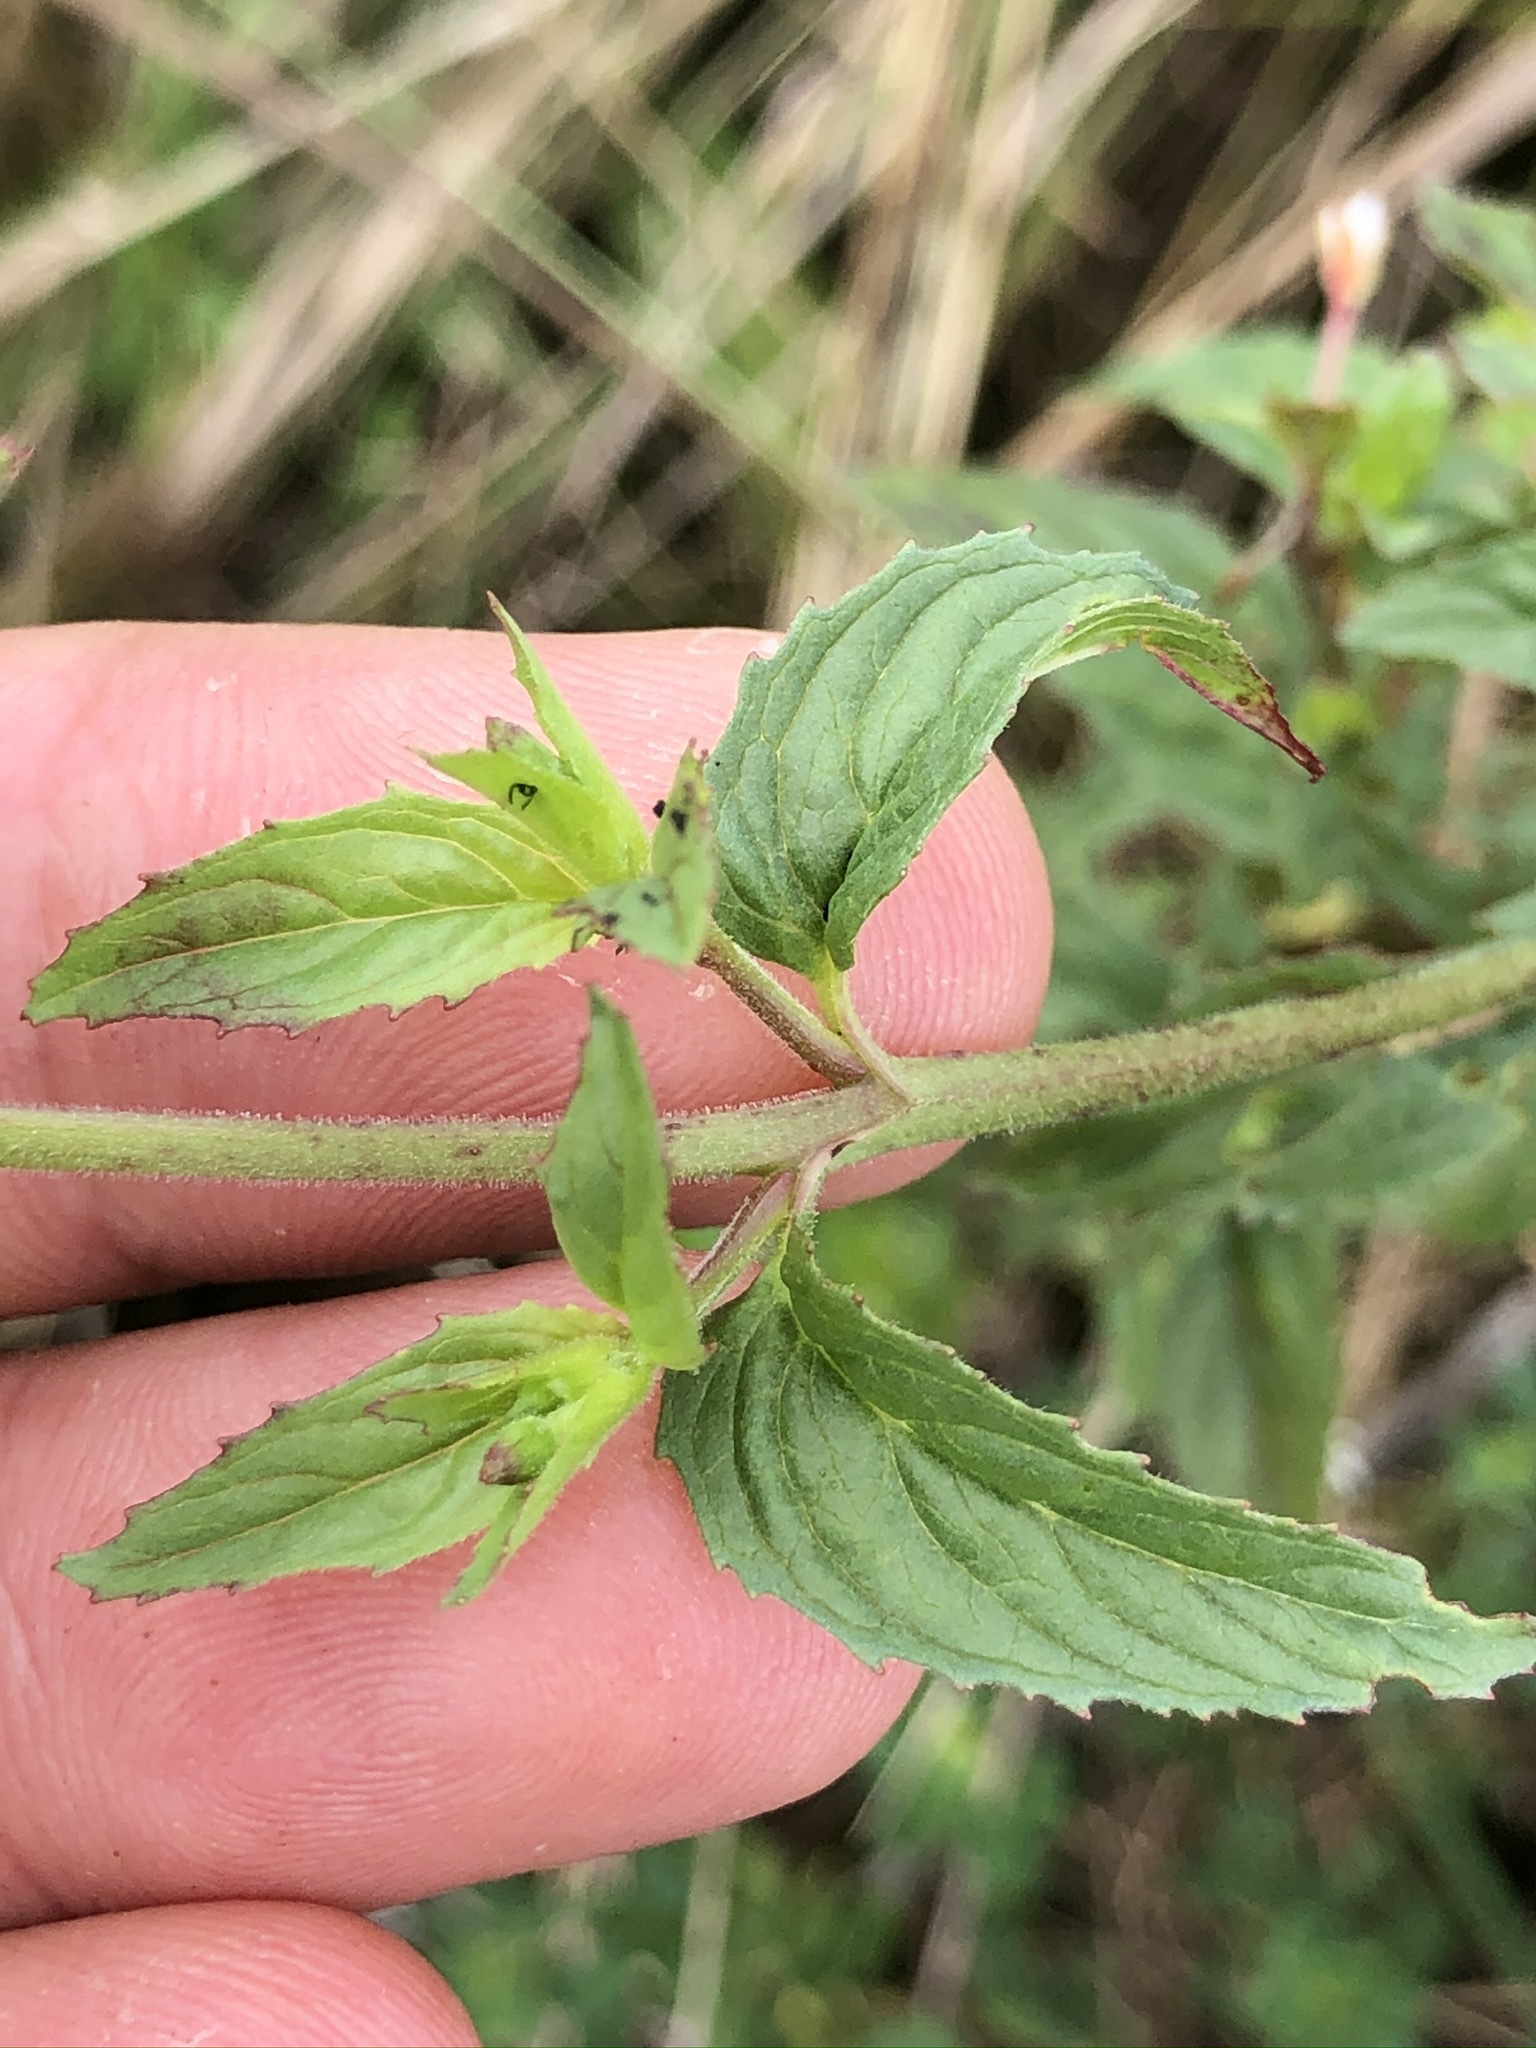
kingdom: Plantae
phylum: Tracheophyta
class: Magnoliopsida
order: Myrtales
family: Onagraceae
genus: Epilobium
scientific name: Epilobium roseum
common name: Pale willowherb
